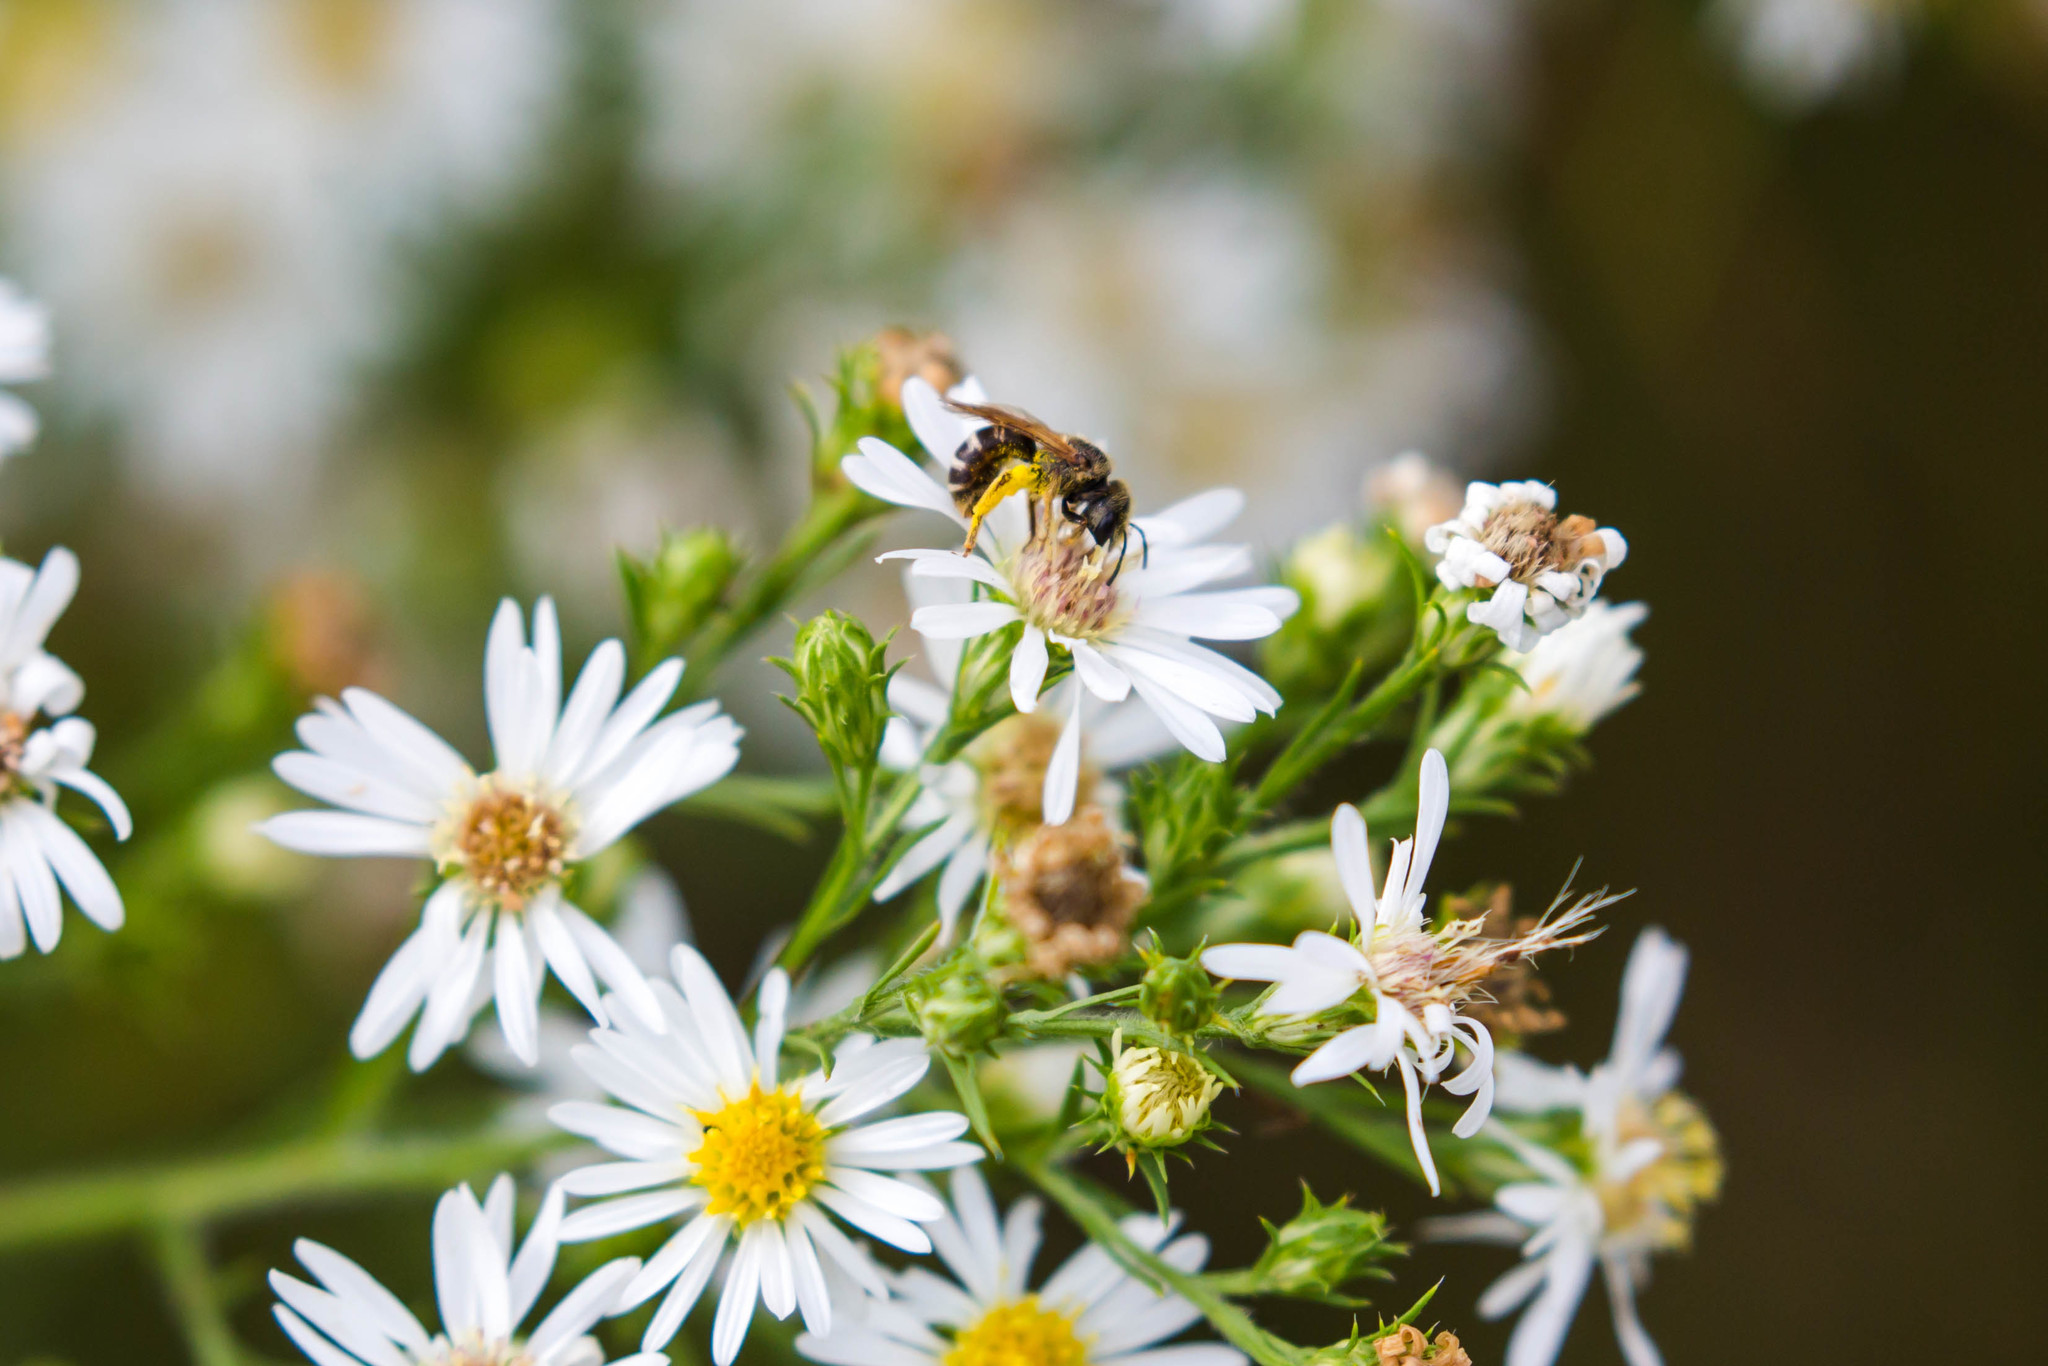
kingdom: Animalia
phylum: Arthropoda
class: Insecta
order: Hymenoptera
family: Halictidae
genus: Halictus
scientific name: Halictus ligatus
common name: Ligated furrow bee
